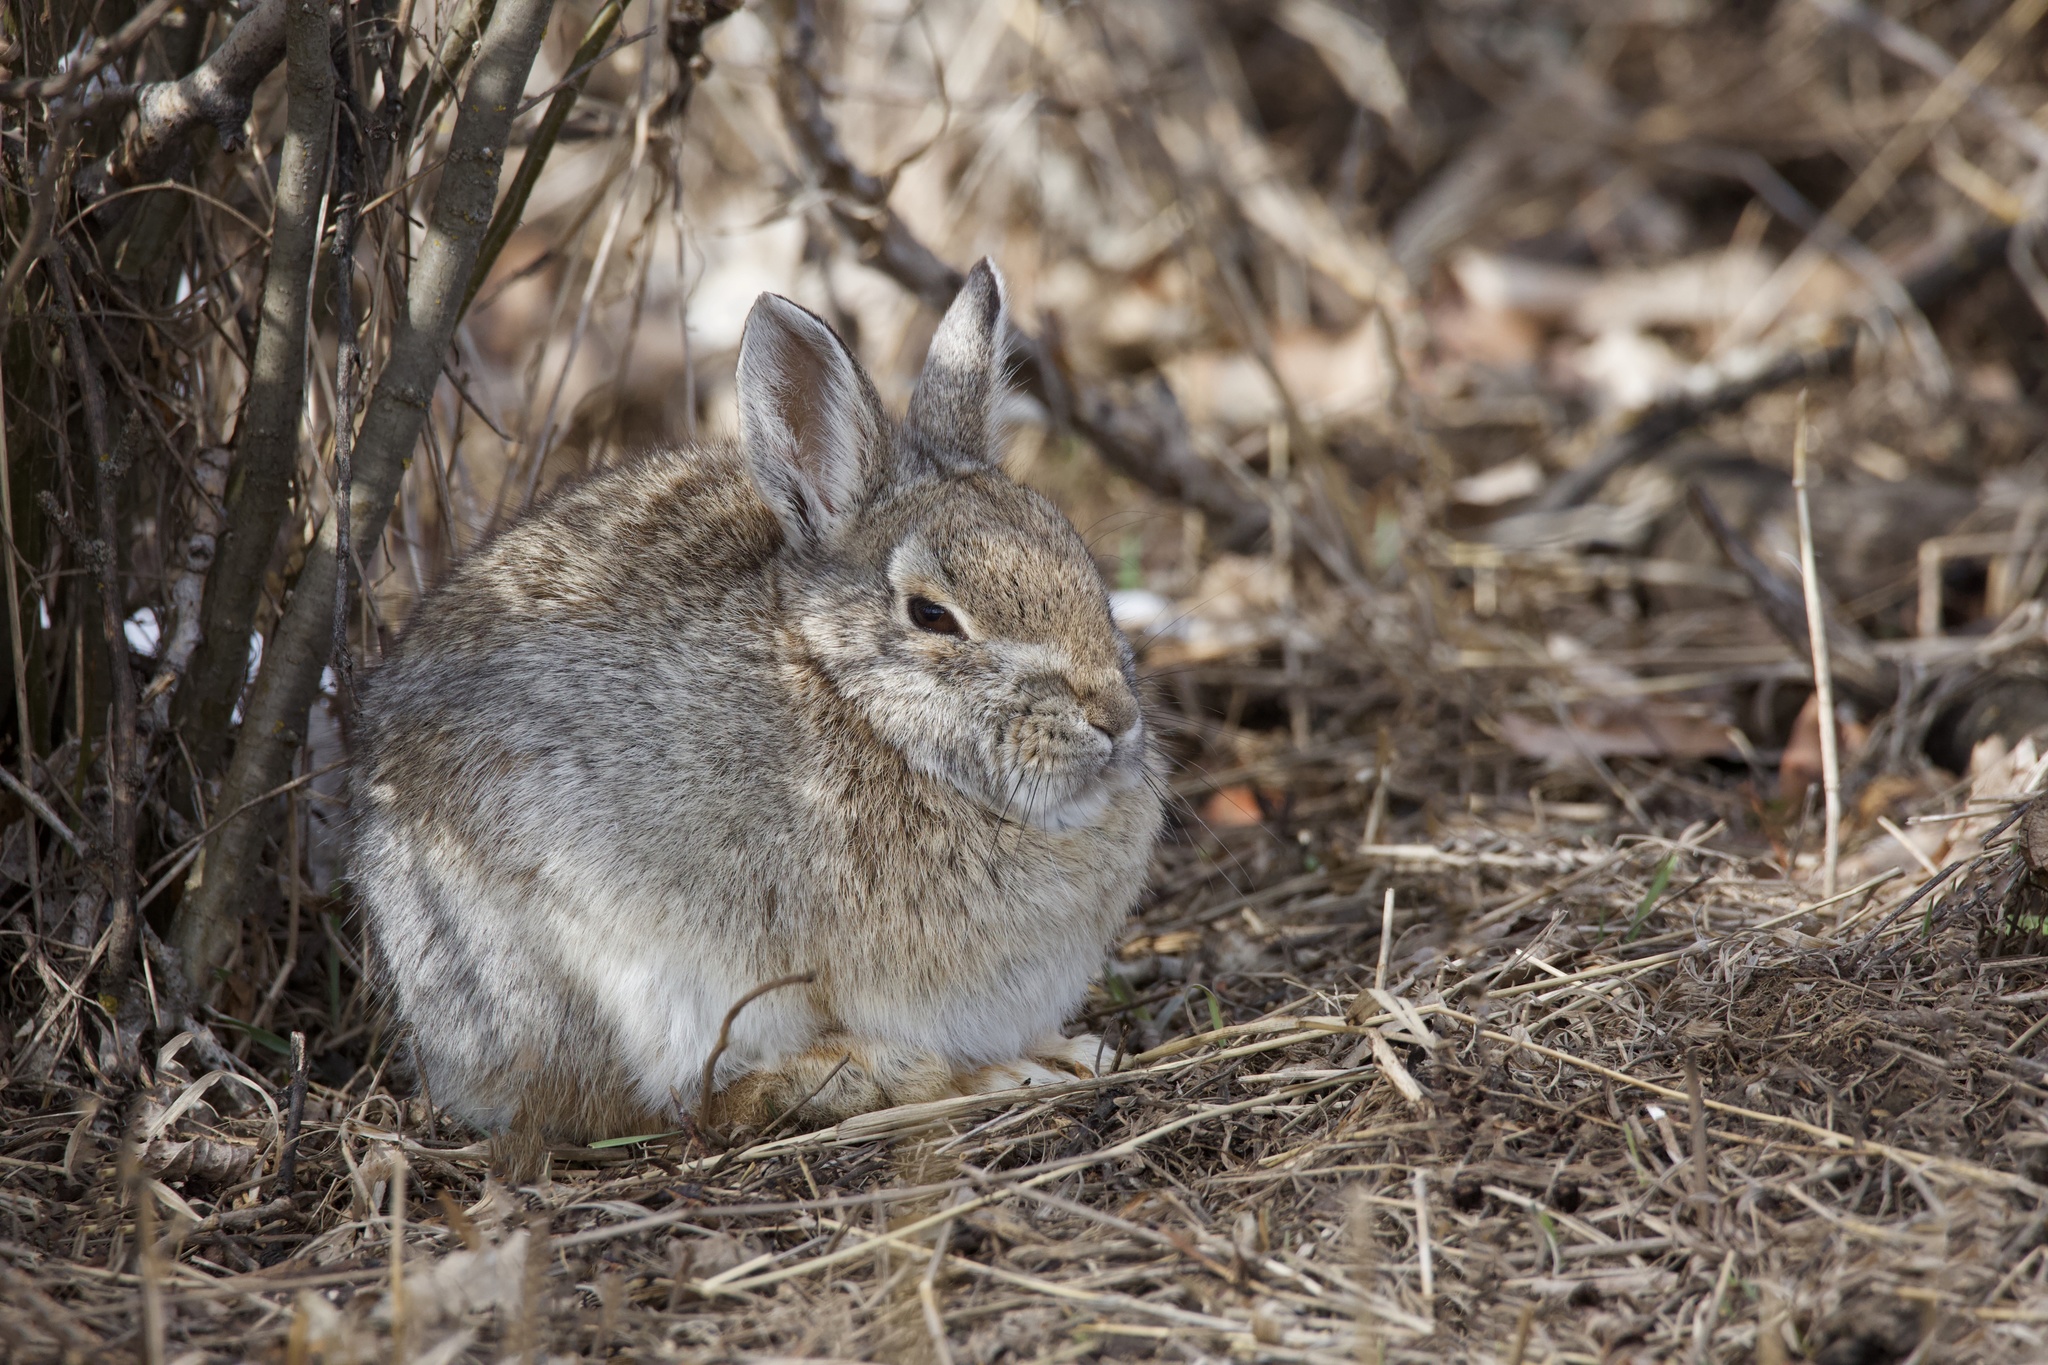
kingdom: Animalia
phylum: Chordata
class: Mammalia
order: Lagomorpha
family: Leporidae
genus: Sylvilagus
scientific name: Sylvilagus nuttallii
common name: Mountain cottontail
